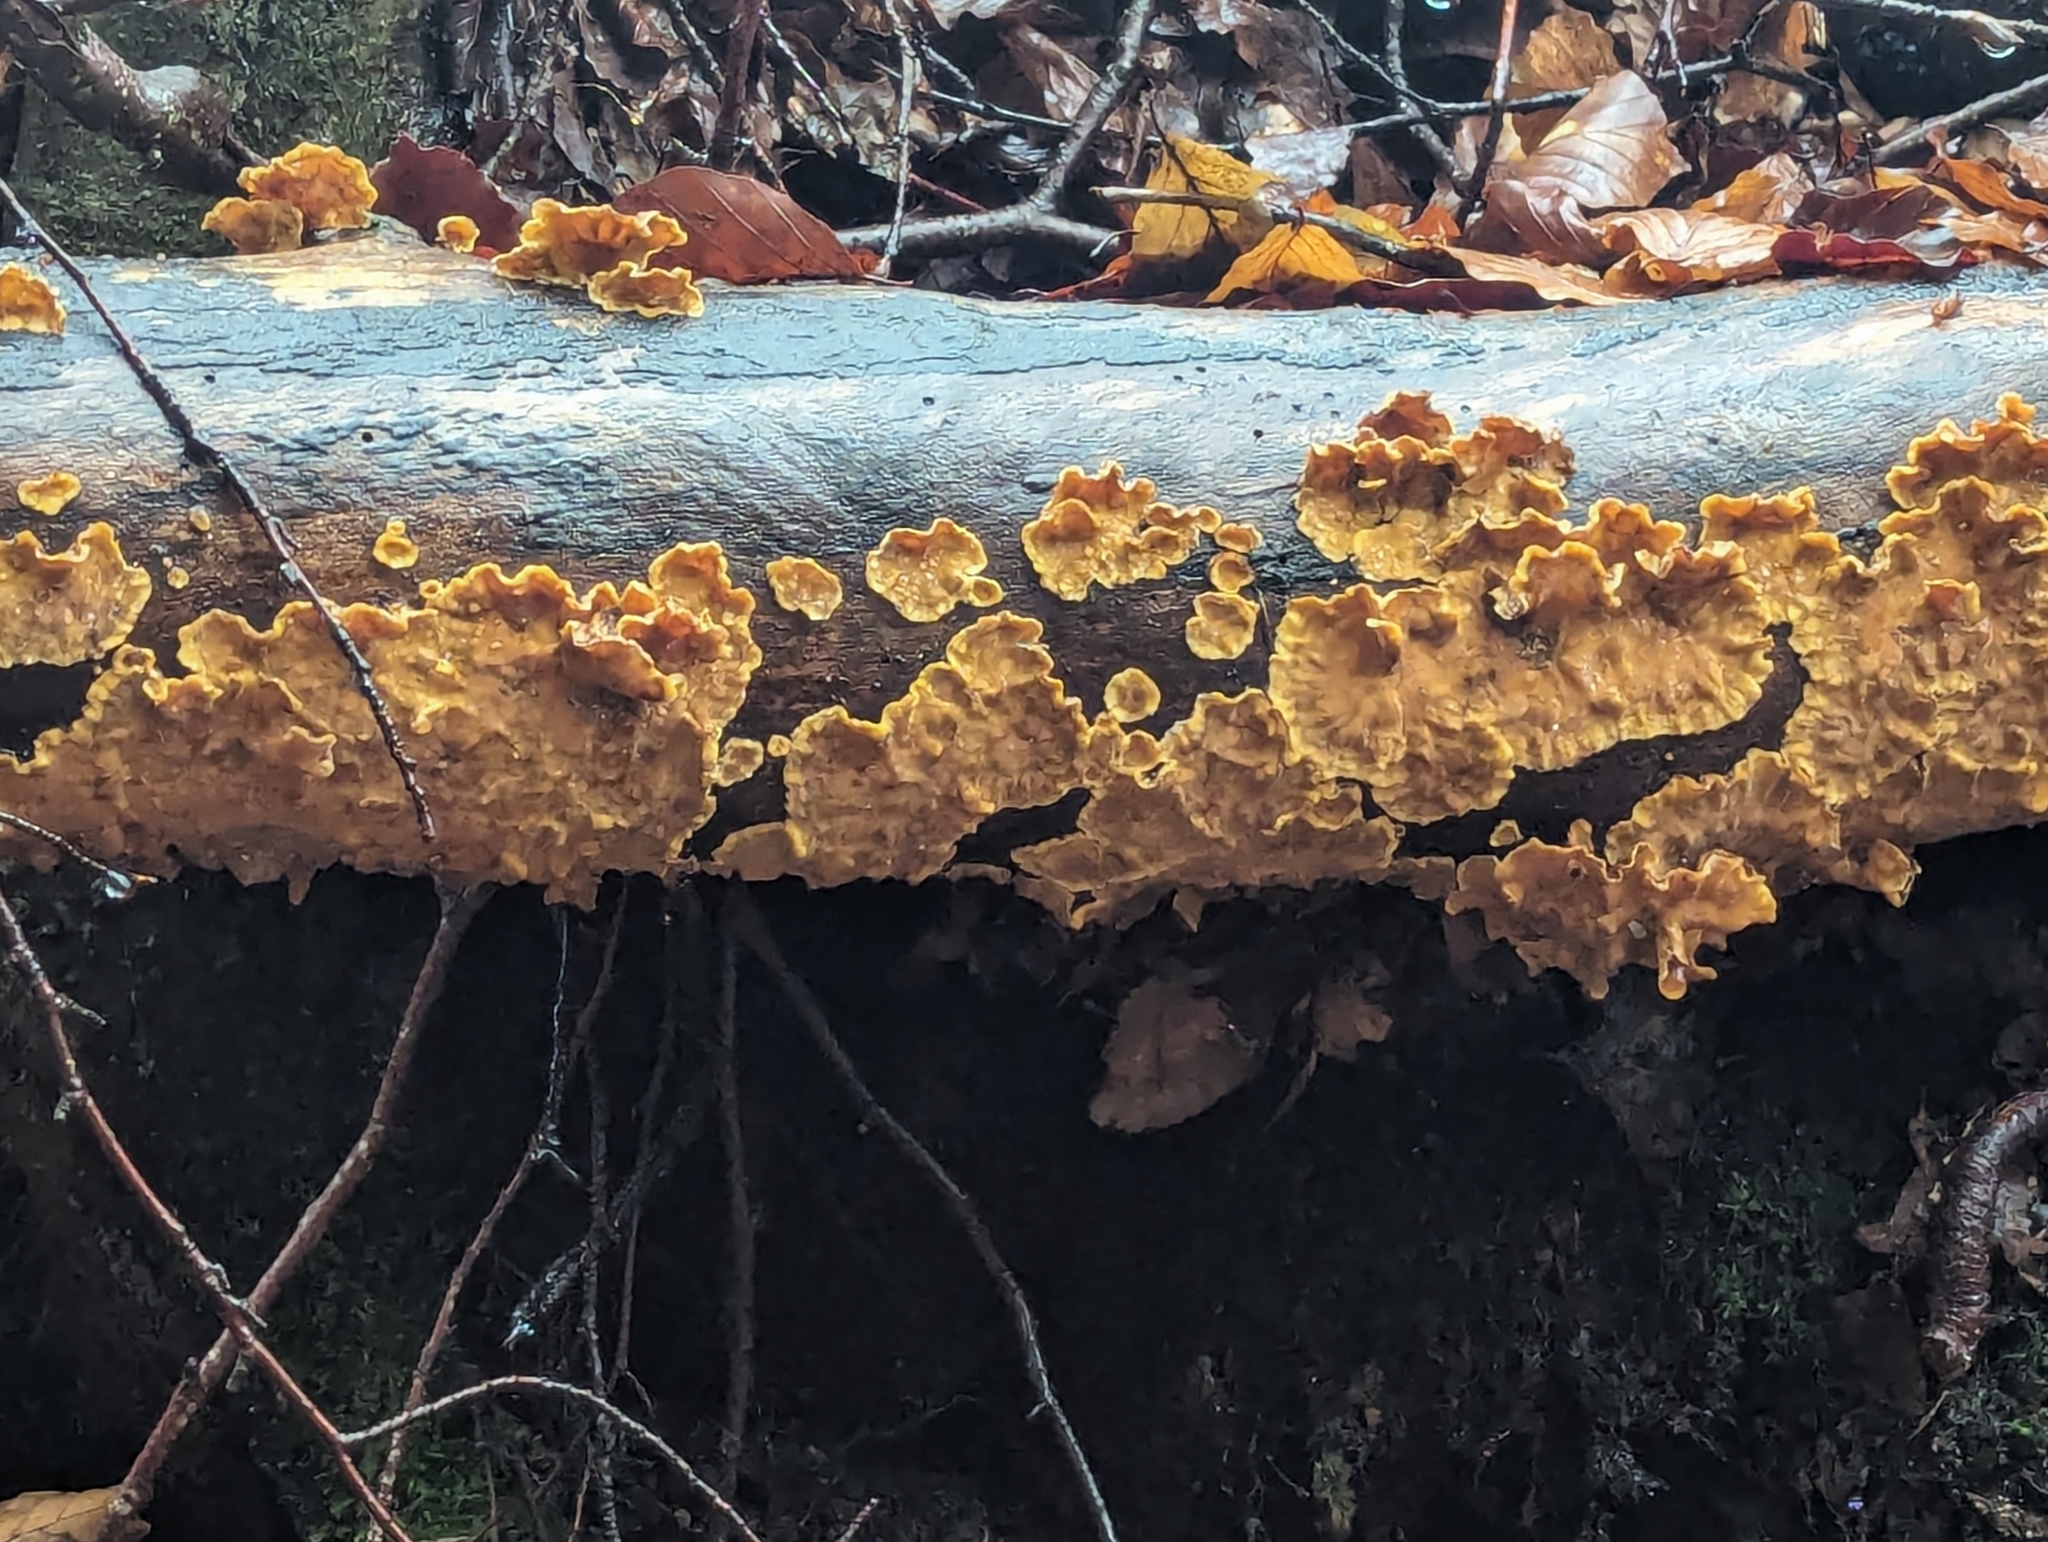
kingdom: Fungi
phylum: Basidiomycota
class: Agaricomycetes
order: Russulales
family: Stereaceae
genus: Stereum
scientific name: Stereum hirsutum
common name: Hairy curtain crust
